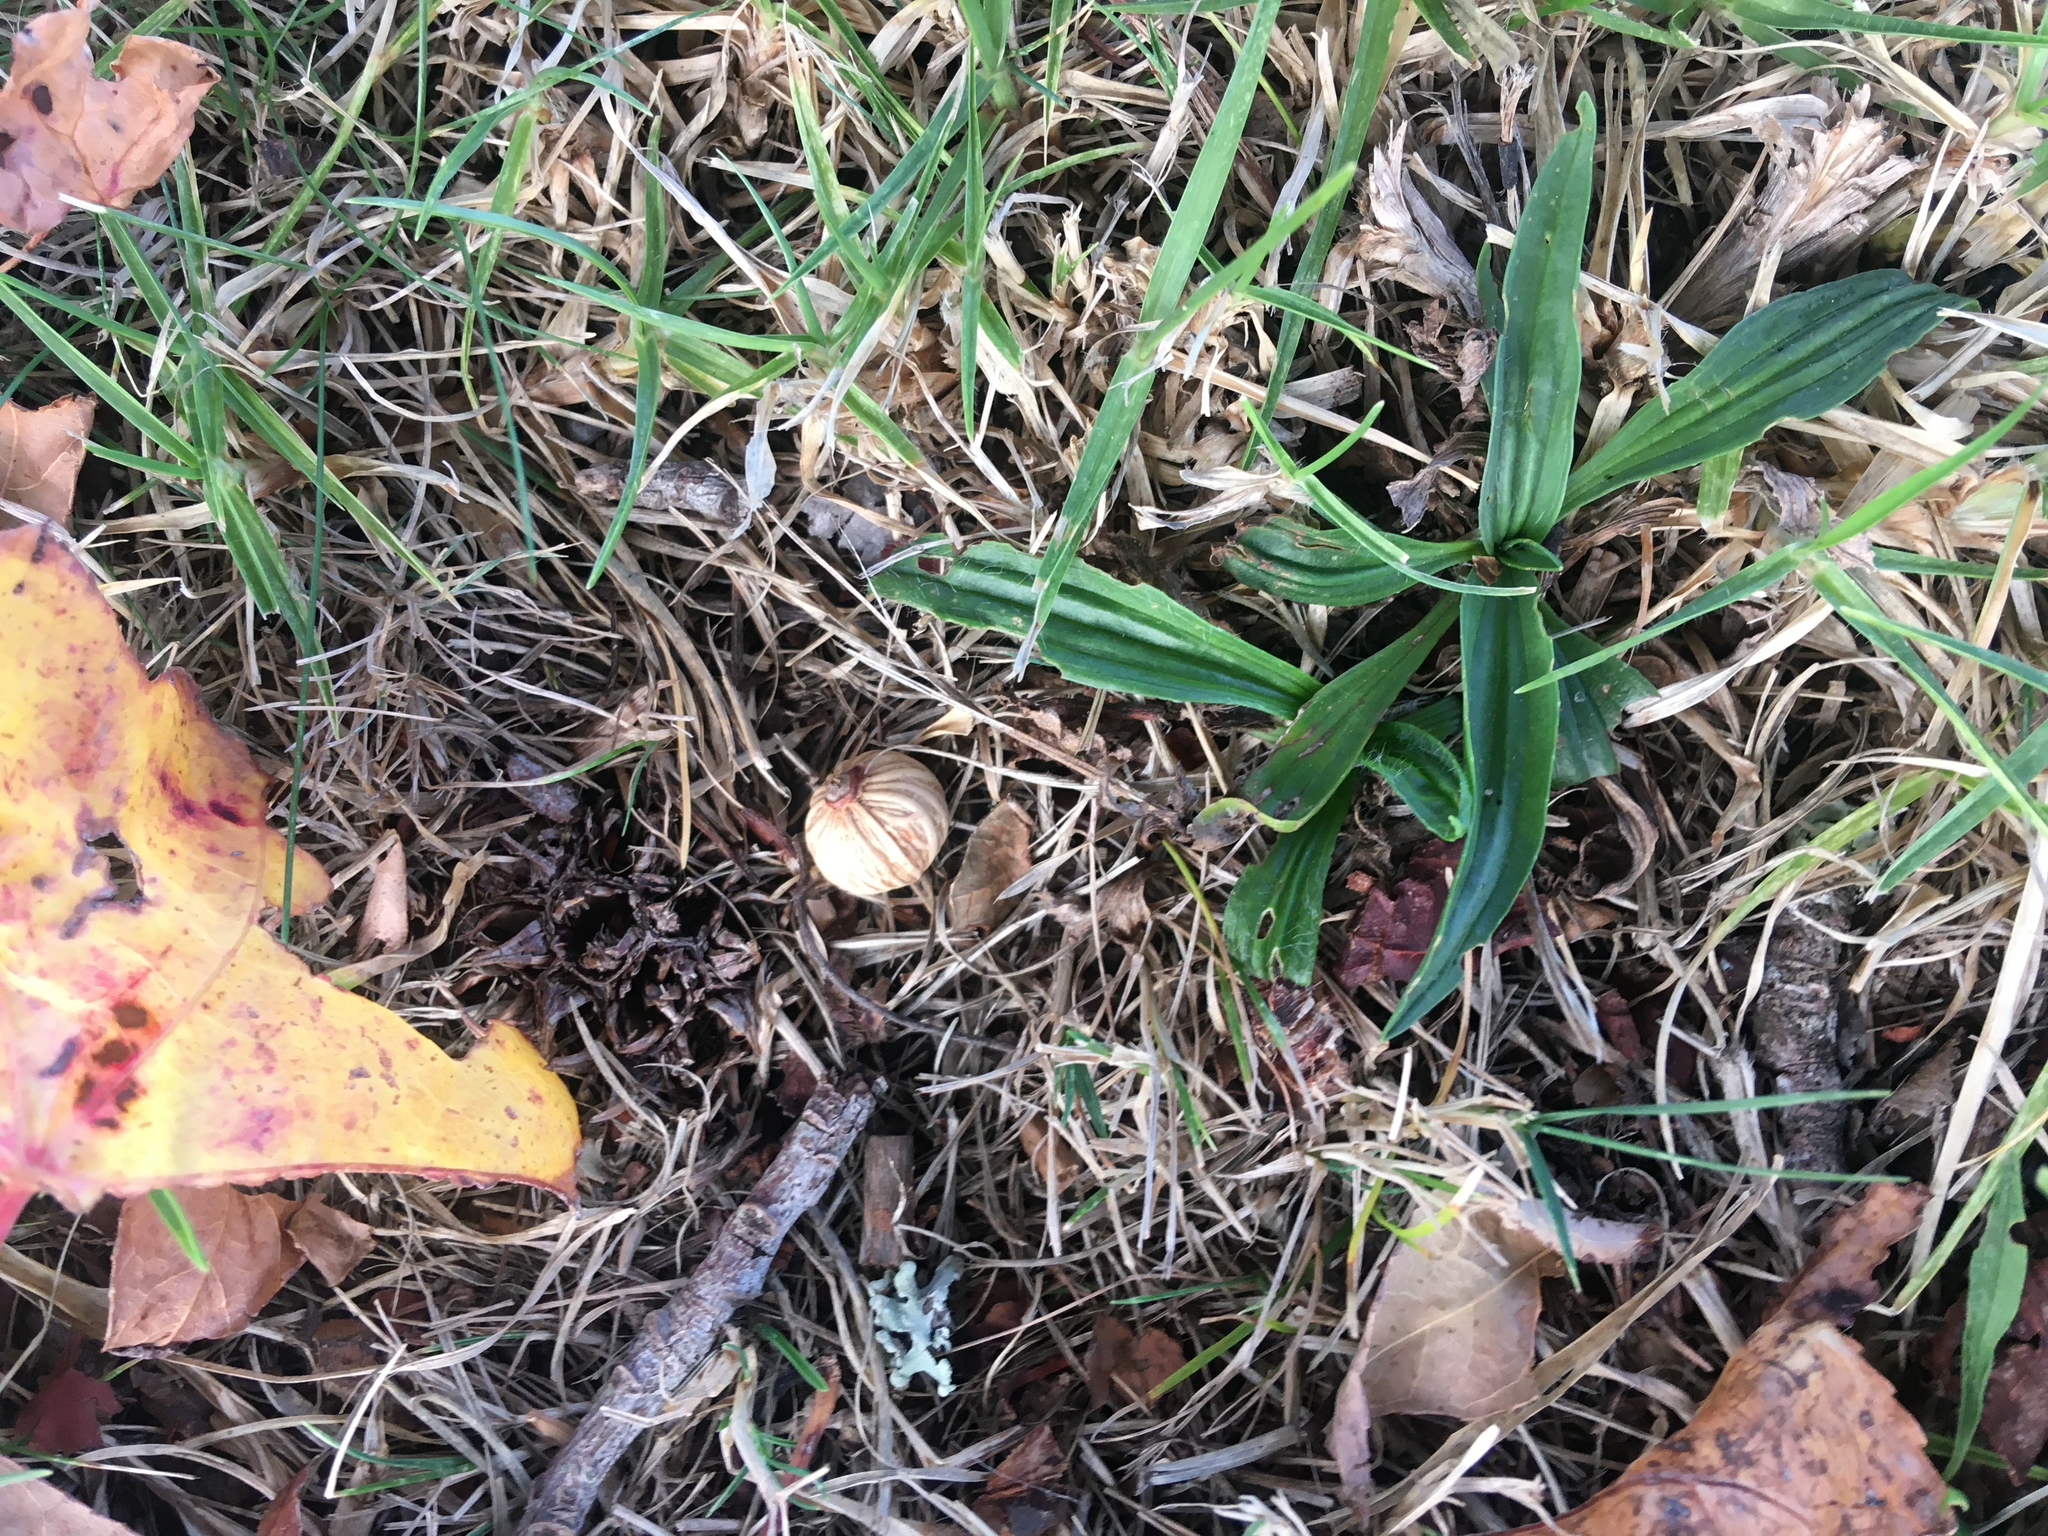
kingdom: Plantae
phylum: Tracheophyta
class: Liliopsida
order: Arecales
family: Arecaceae
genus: Archontophoenix
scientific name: Archontophoenix cunninghamiana
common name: Piccabeen bangalow palm
